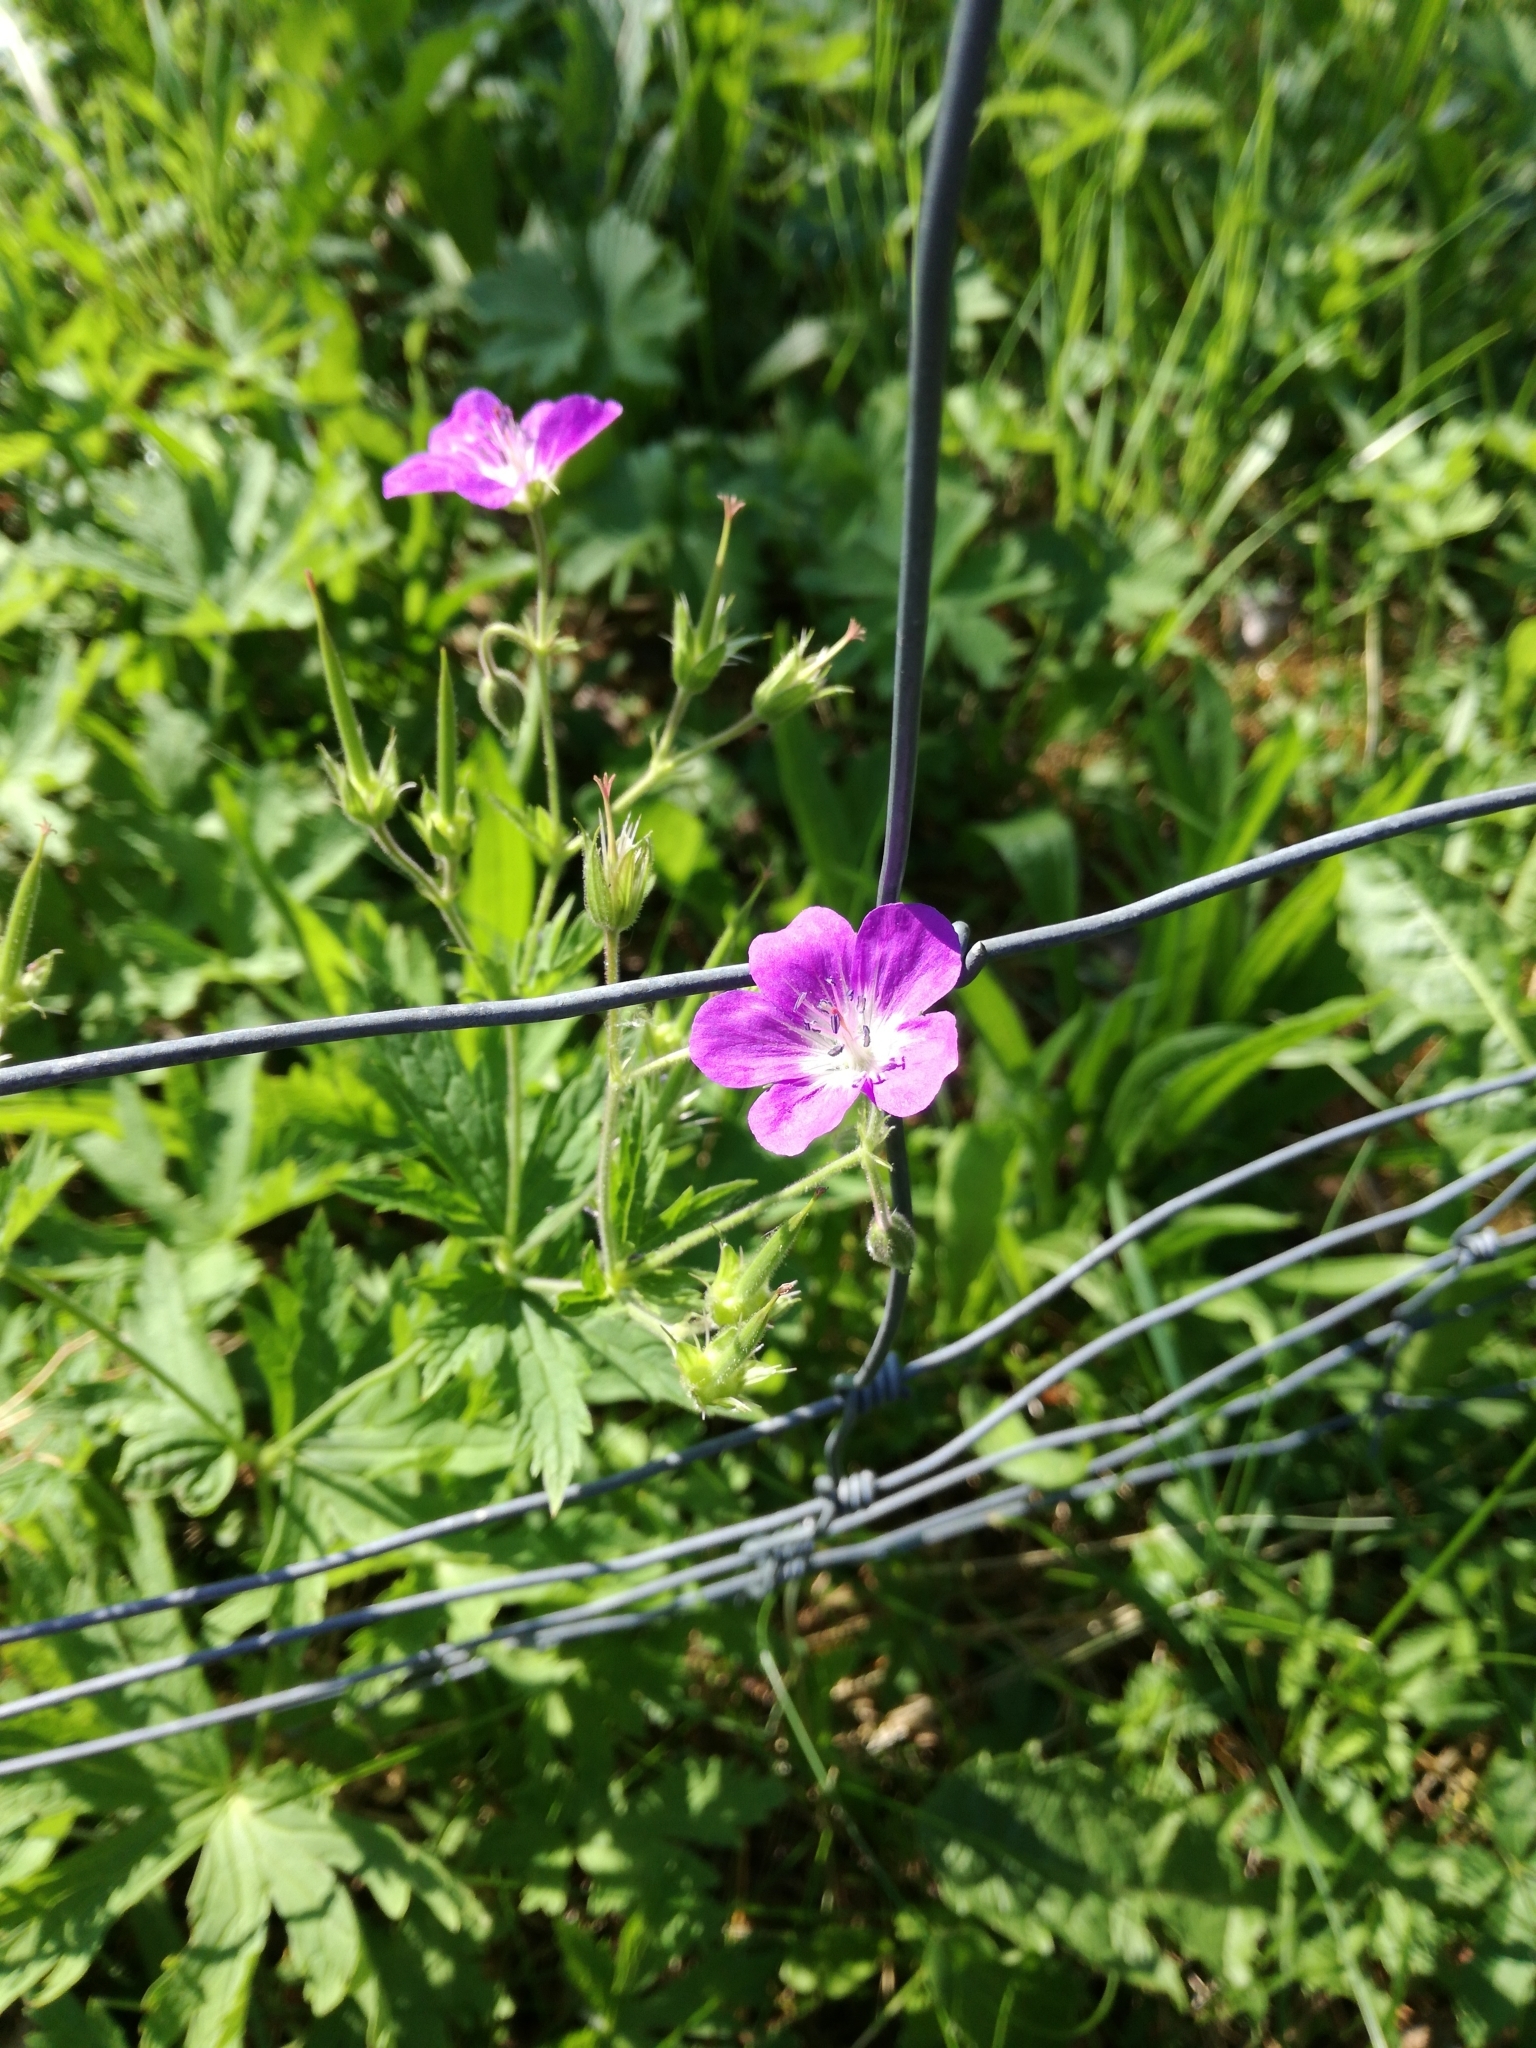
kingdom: Plantae
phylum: Tracheophyta
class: Magnoliopsida
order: Geraniales
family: Geraniaceae
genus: Geranium
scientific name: Geranium sylvaticum
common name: Wood crane's-bill
